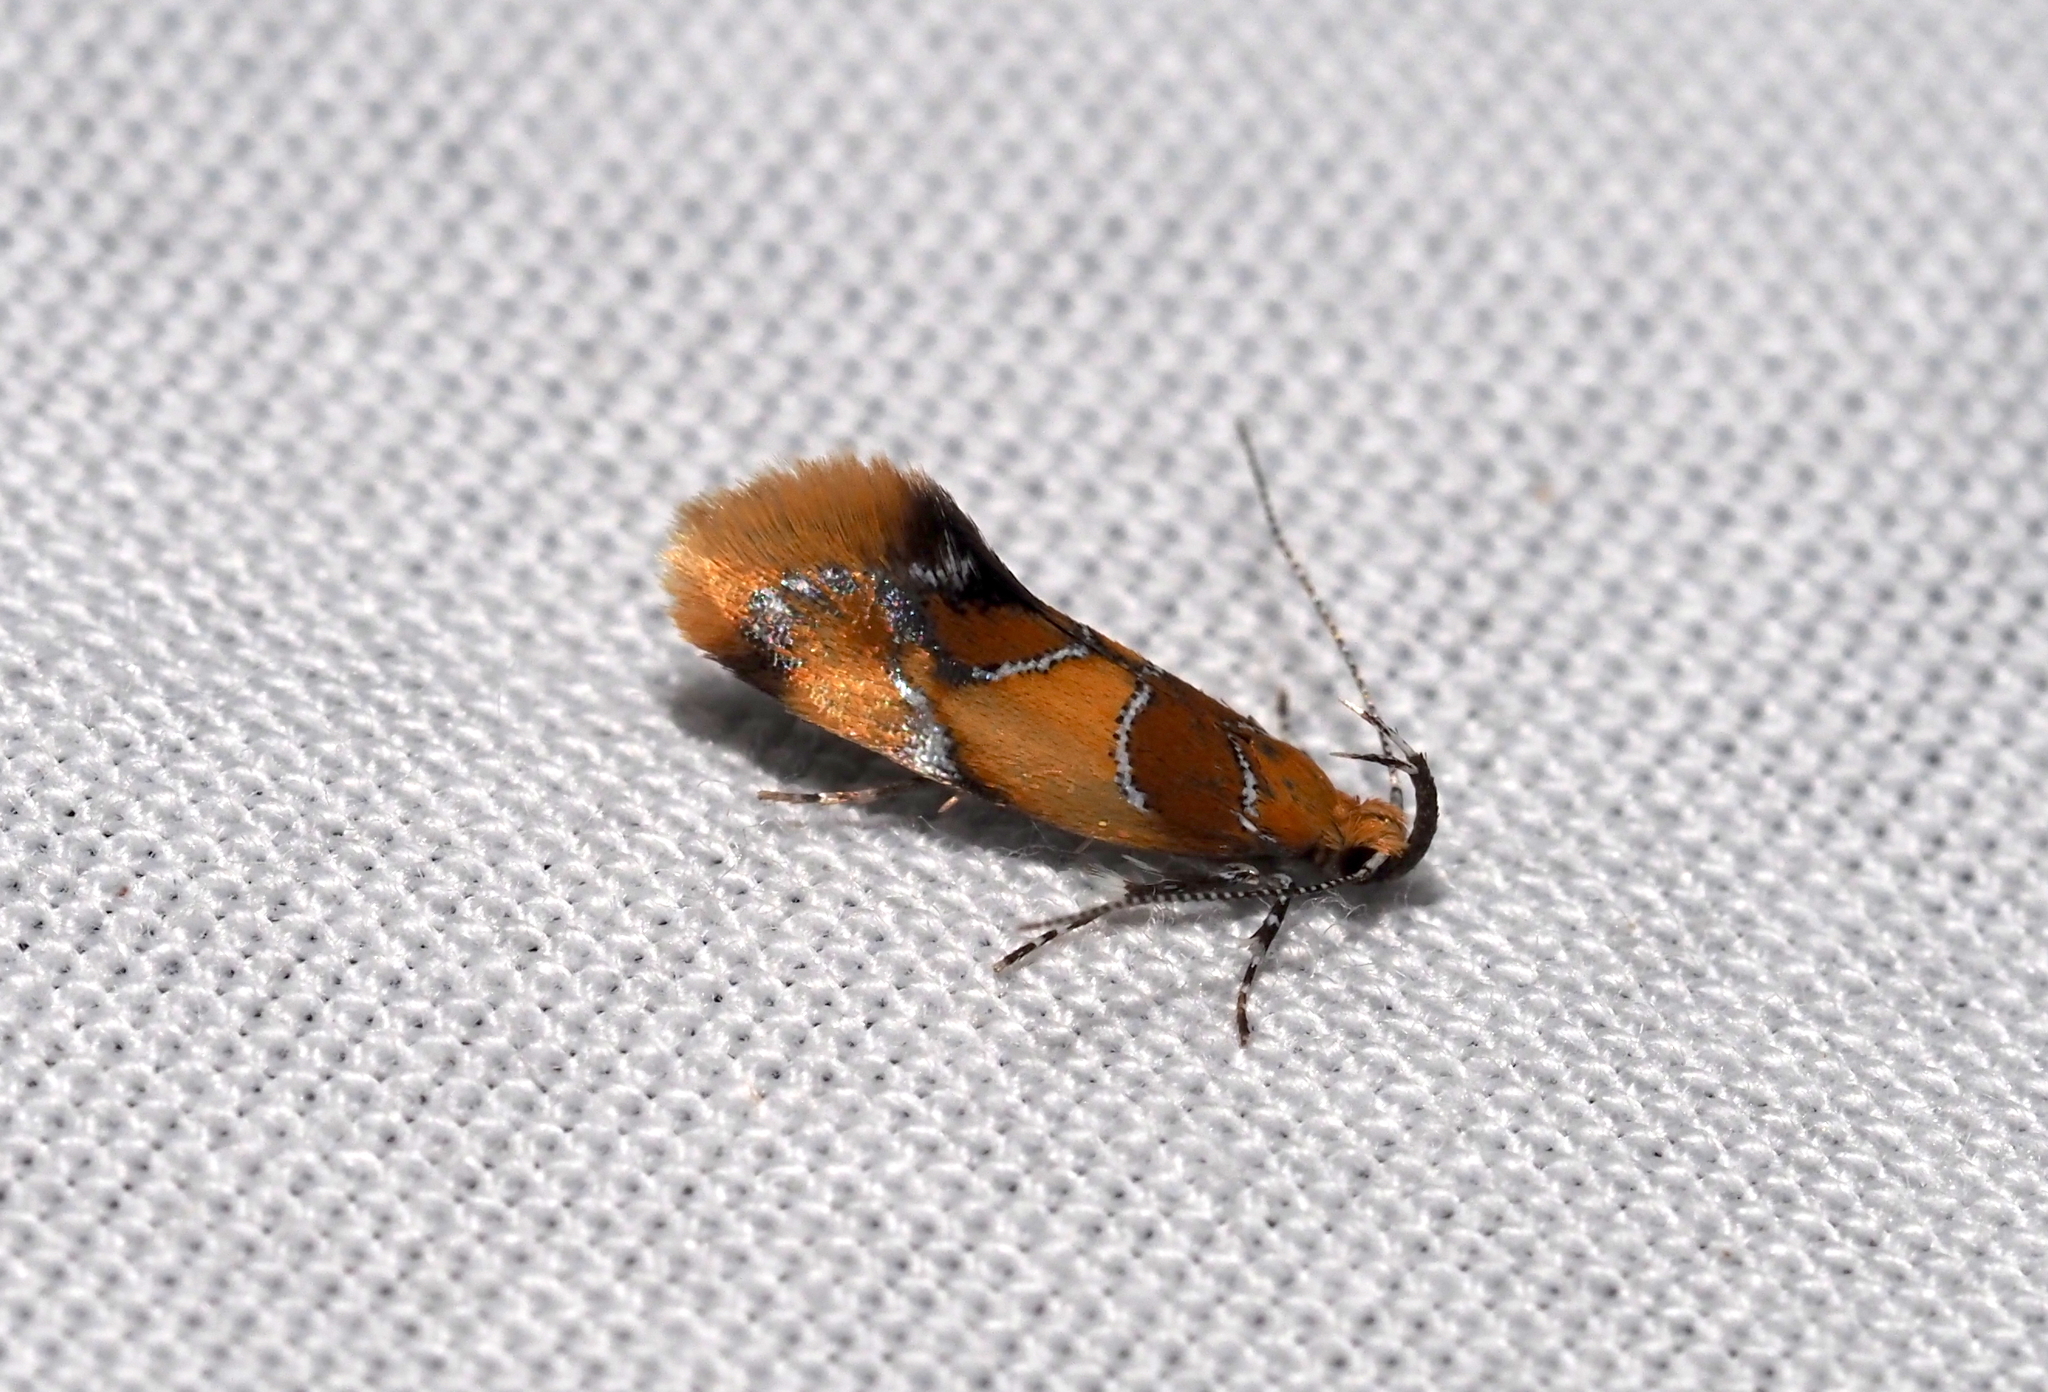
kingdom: Animalia
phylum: Arthropoda
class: Insecta
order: Lepidoptera
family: Oecophoridae
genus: Callima
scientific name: Callima argenticinctella
